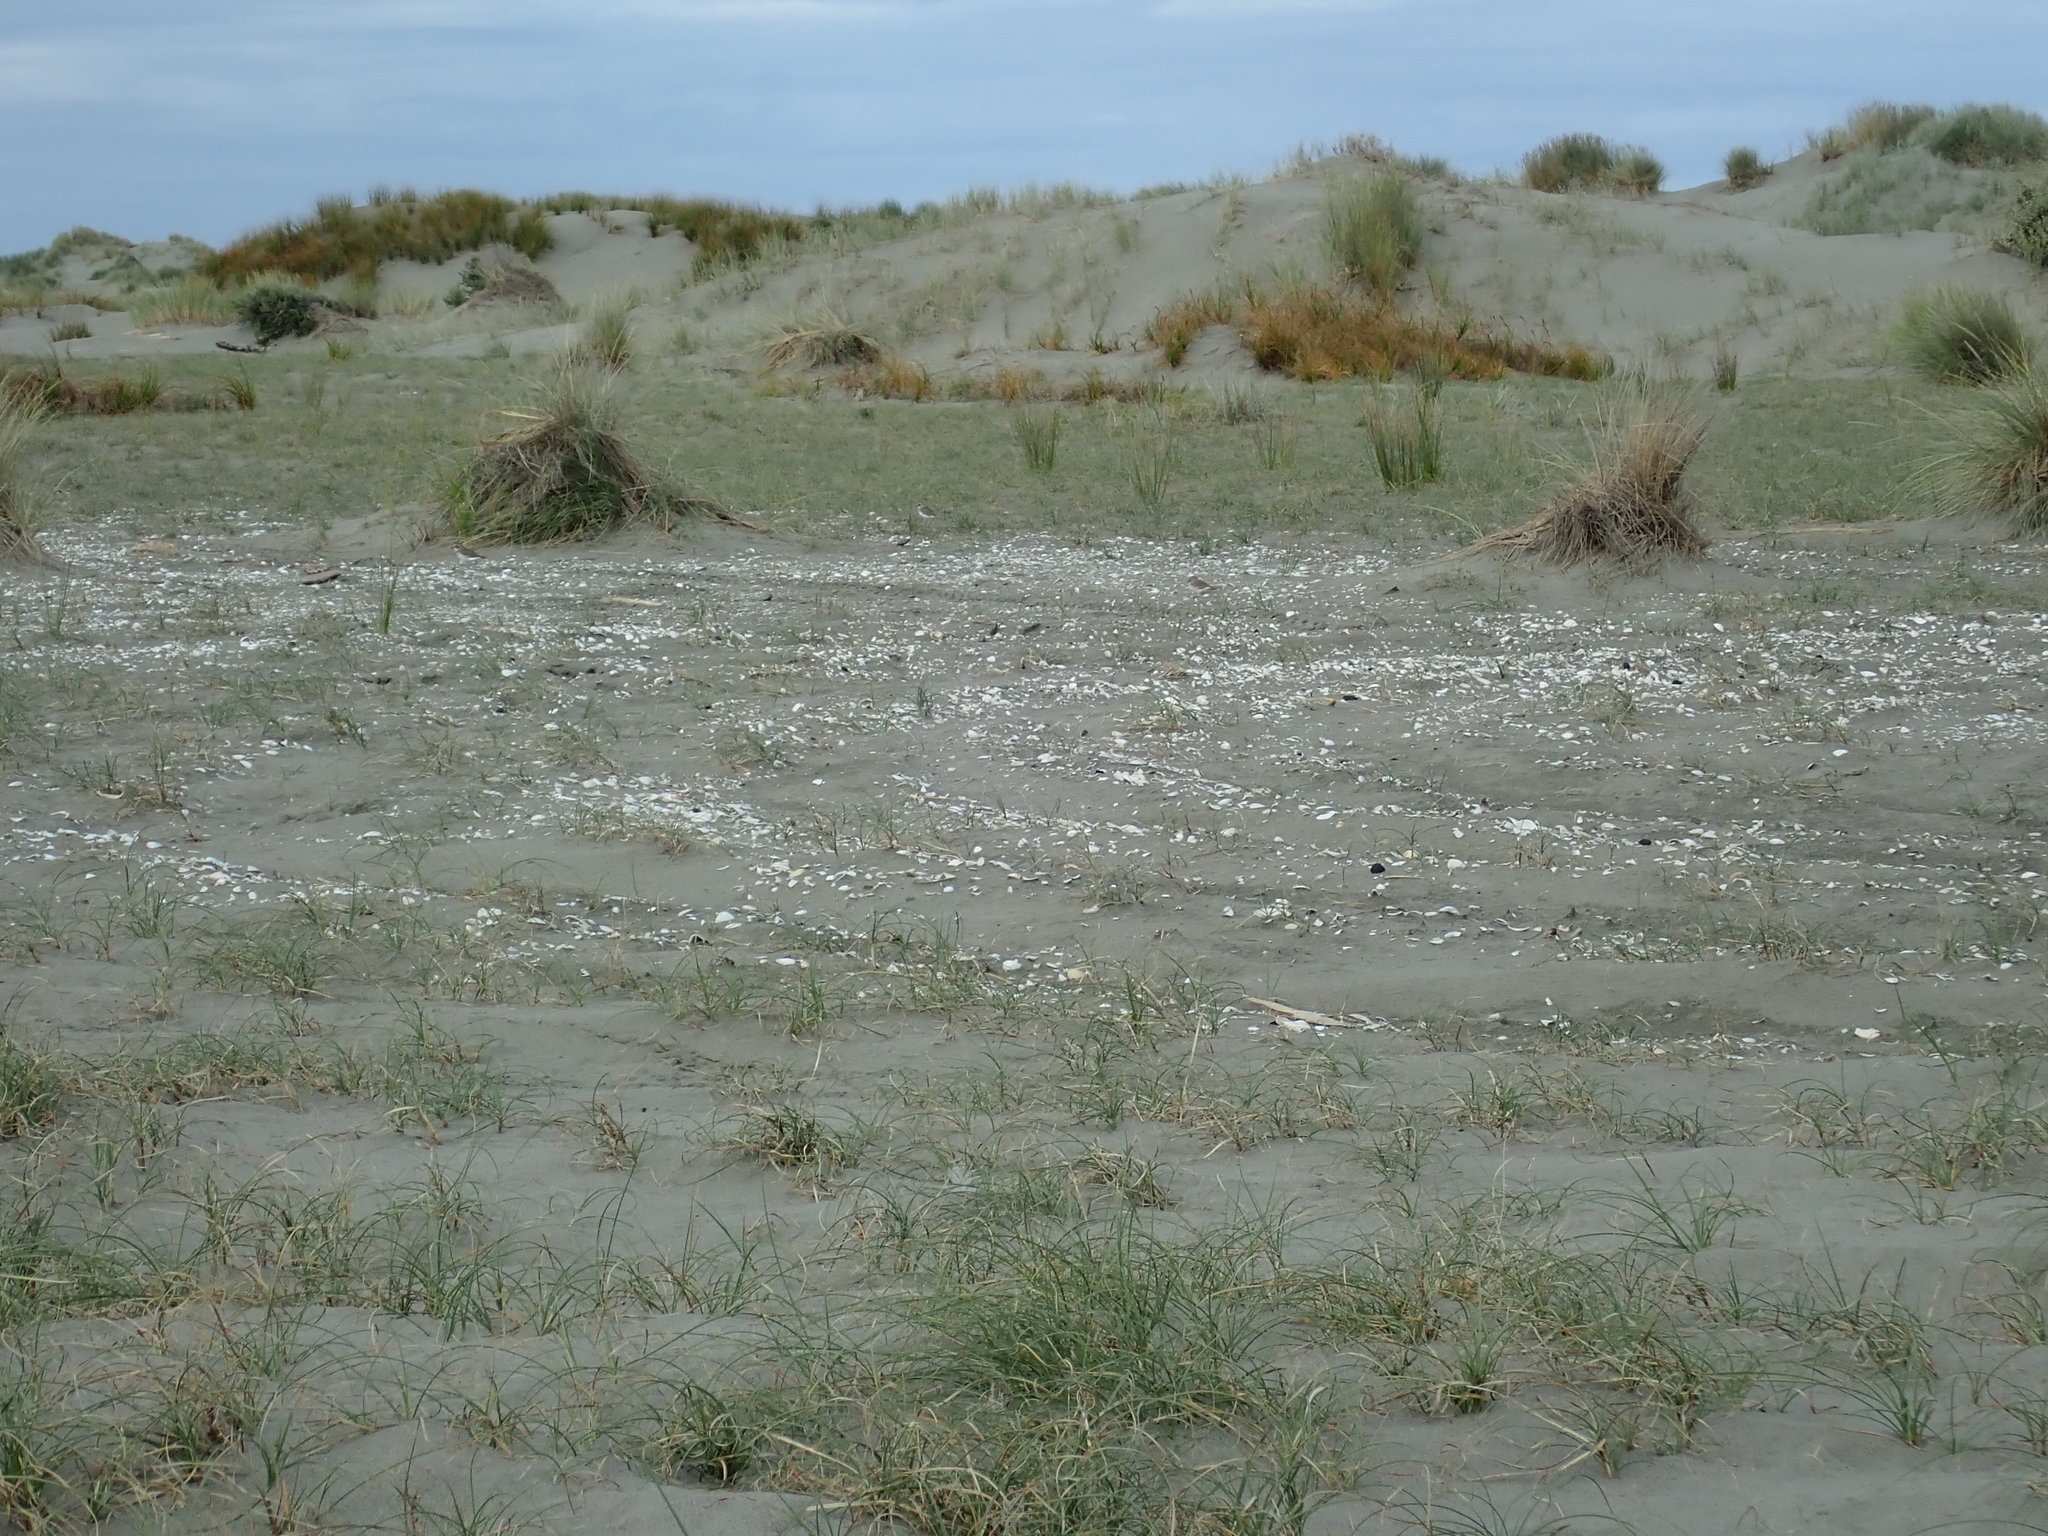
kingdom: Animalia
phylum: Chordata
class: Aves
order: Charadriiformes
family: Charadriidae
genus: Anarhynchus
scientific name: Anarhynchus
